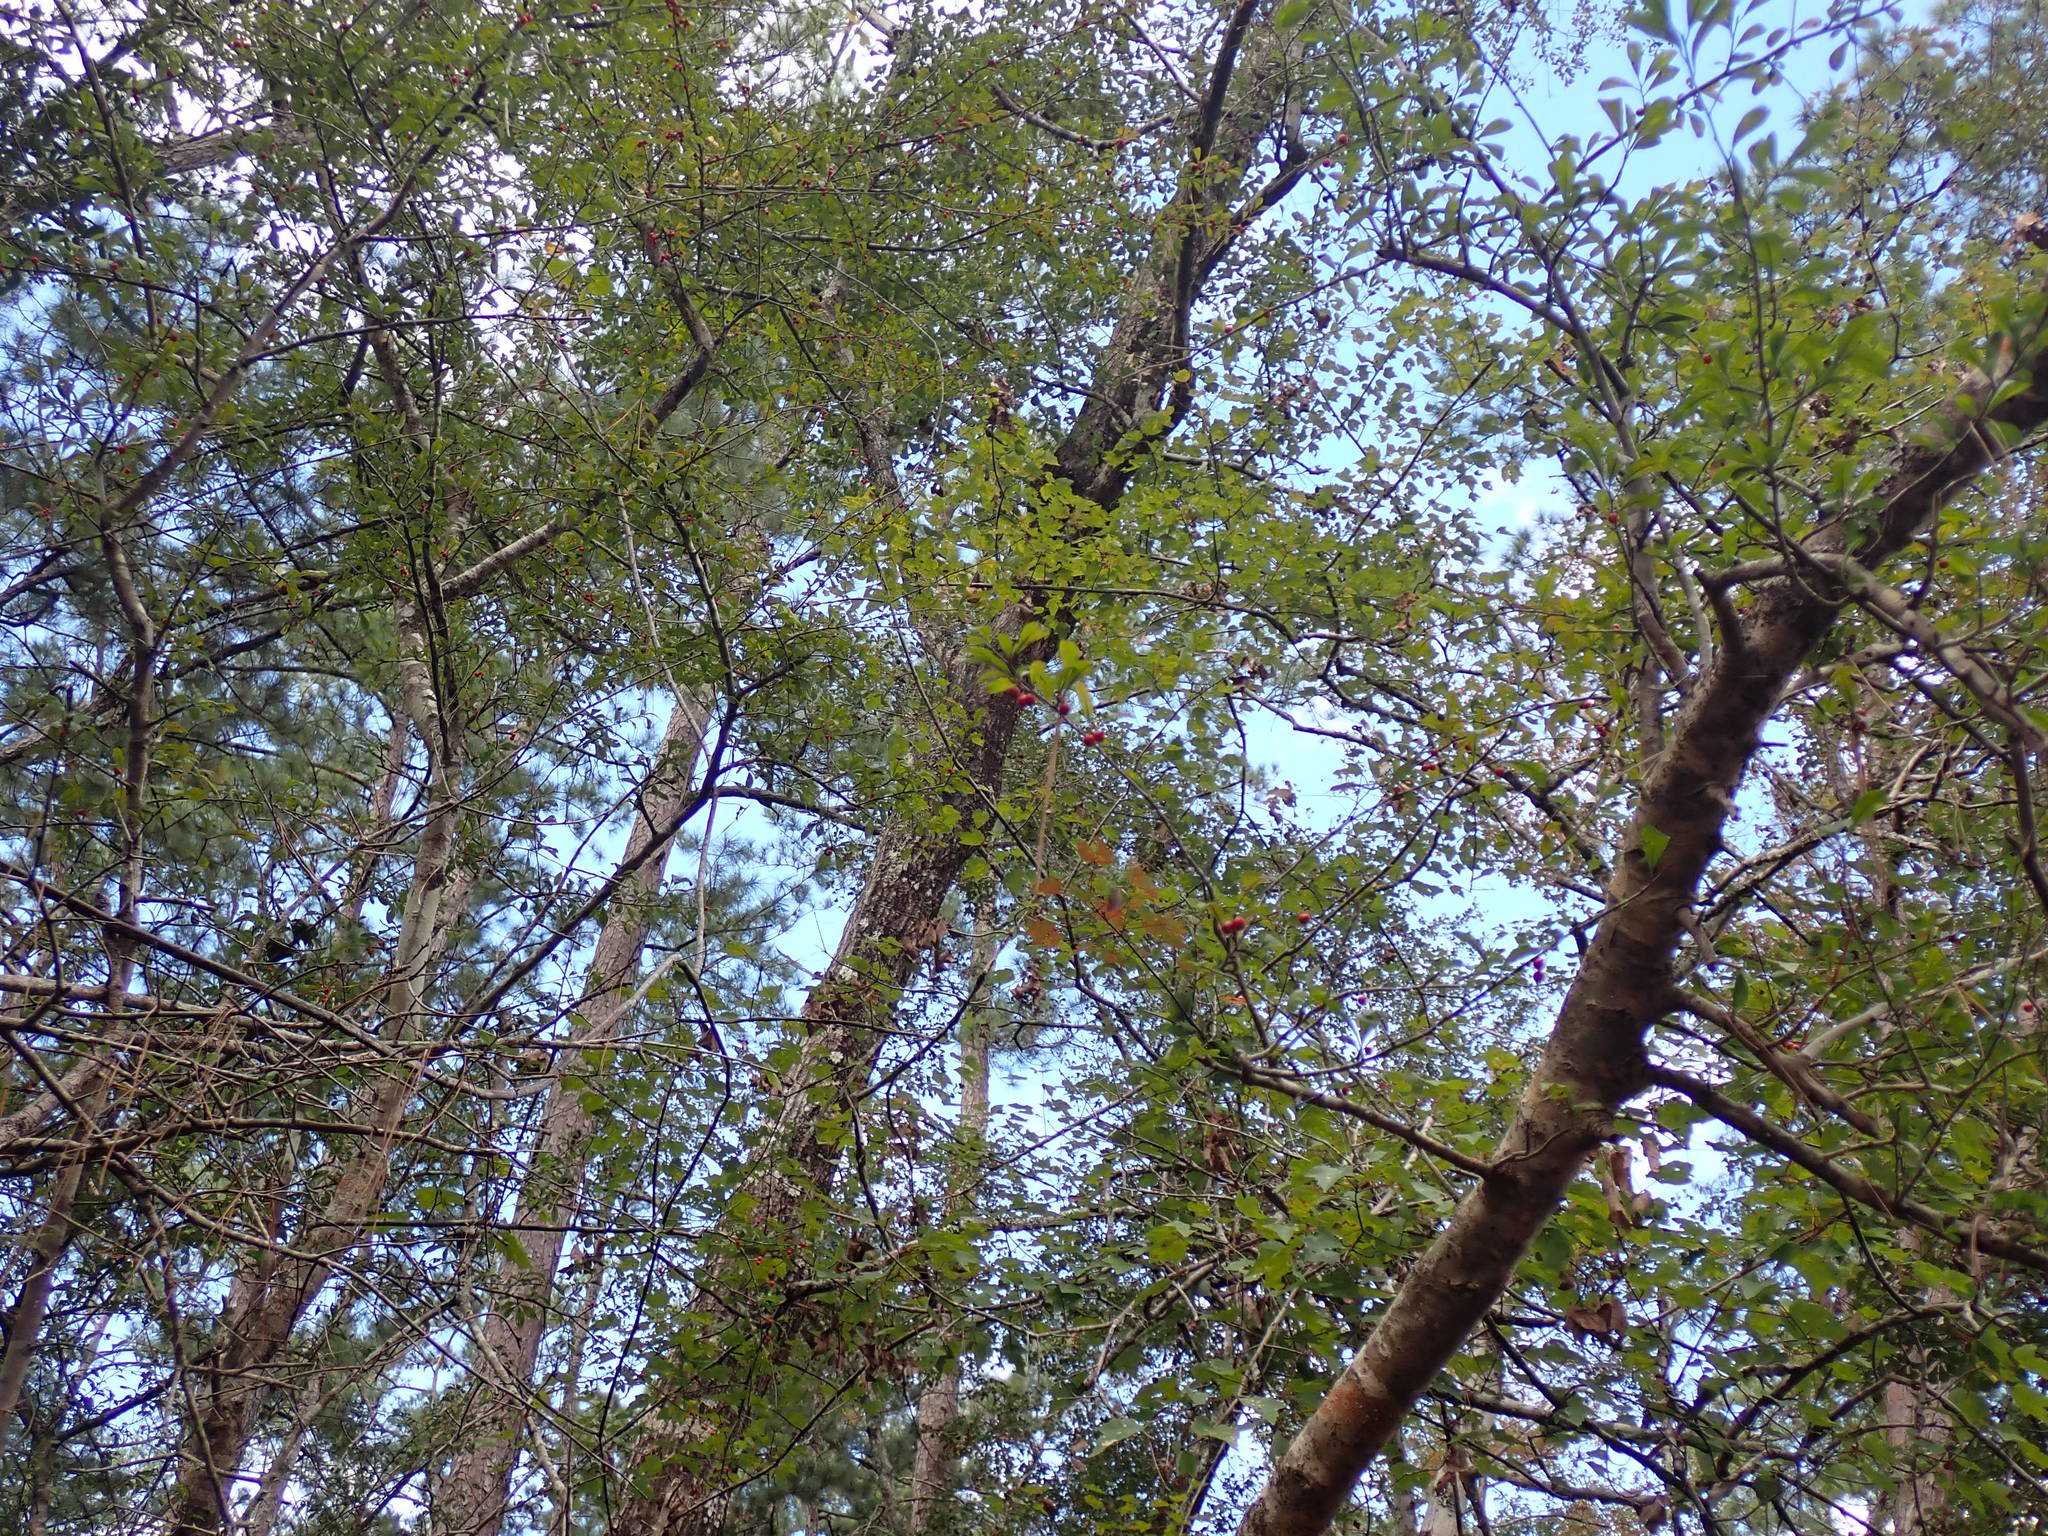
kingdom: Plantae
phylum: Tracheophyta
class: Magnoliopsida
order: Aquifoliales
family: Aquifoliaceae
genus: Ilex
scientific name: Ilex decidua
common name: Possum-haw
